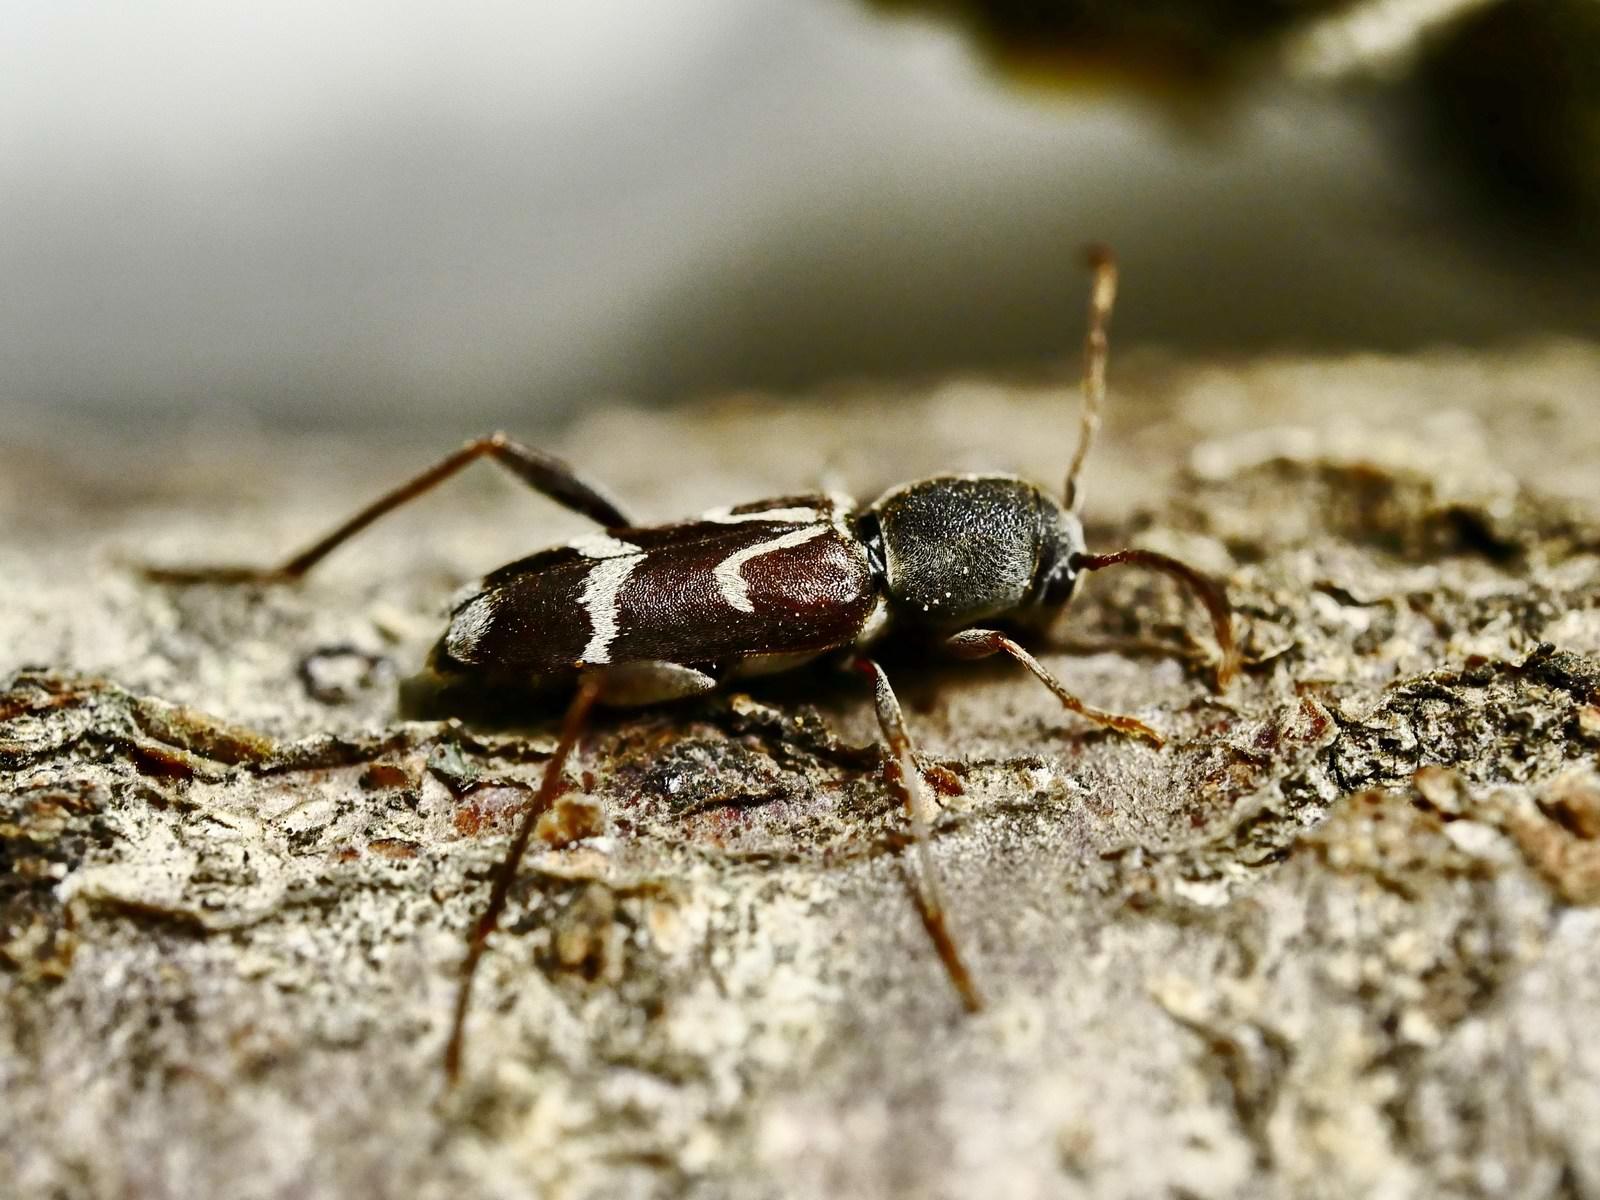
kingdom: Animalia
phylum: Arthropoda
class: Insecta
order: Coleoptera
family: Cerambycidae
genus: Pseudosphegesthes
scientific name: Pseudosphegesthes brunnescens
